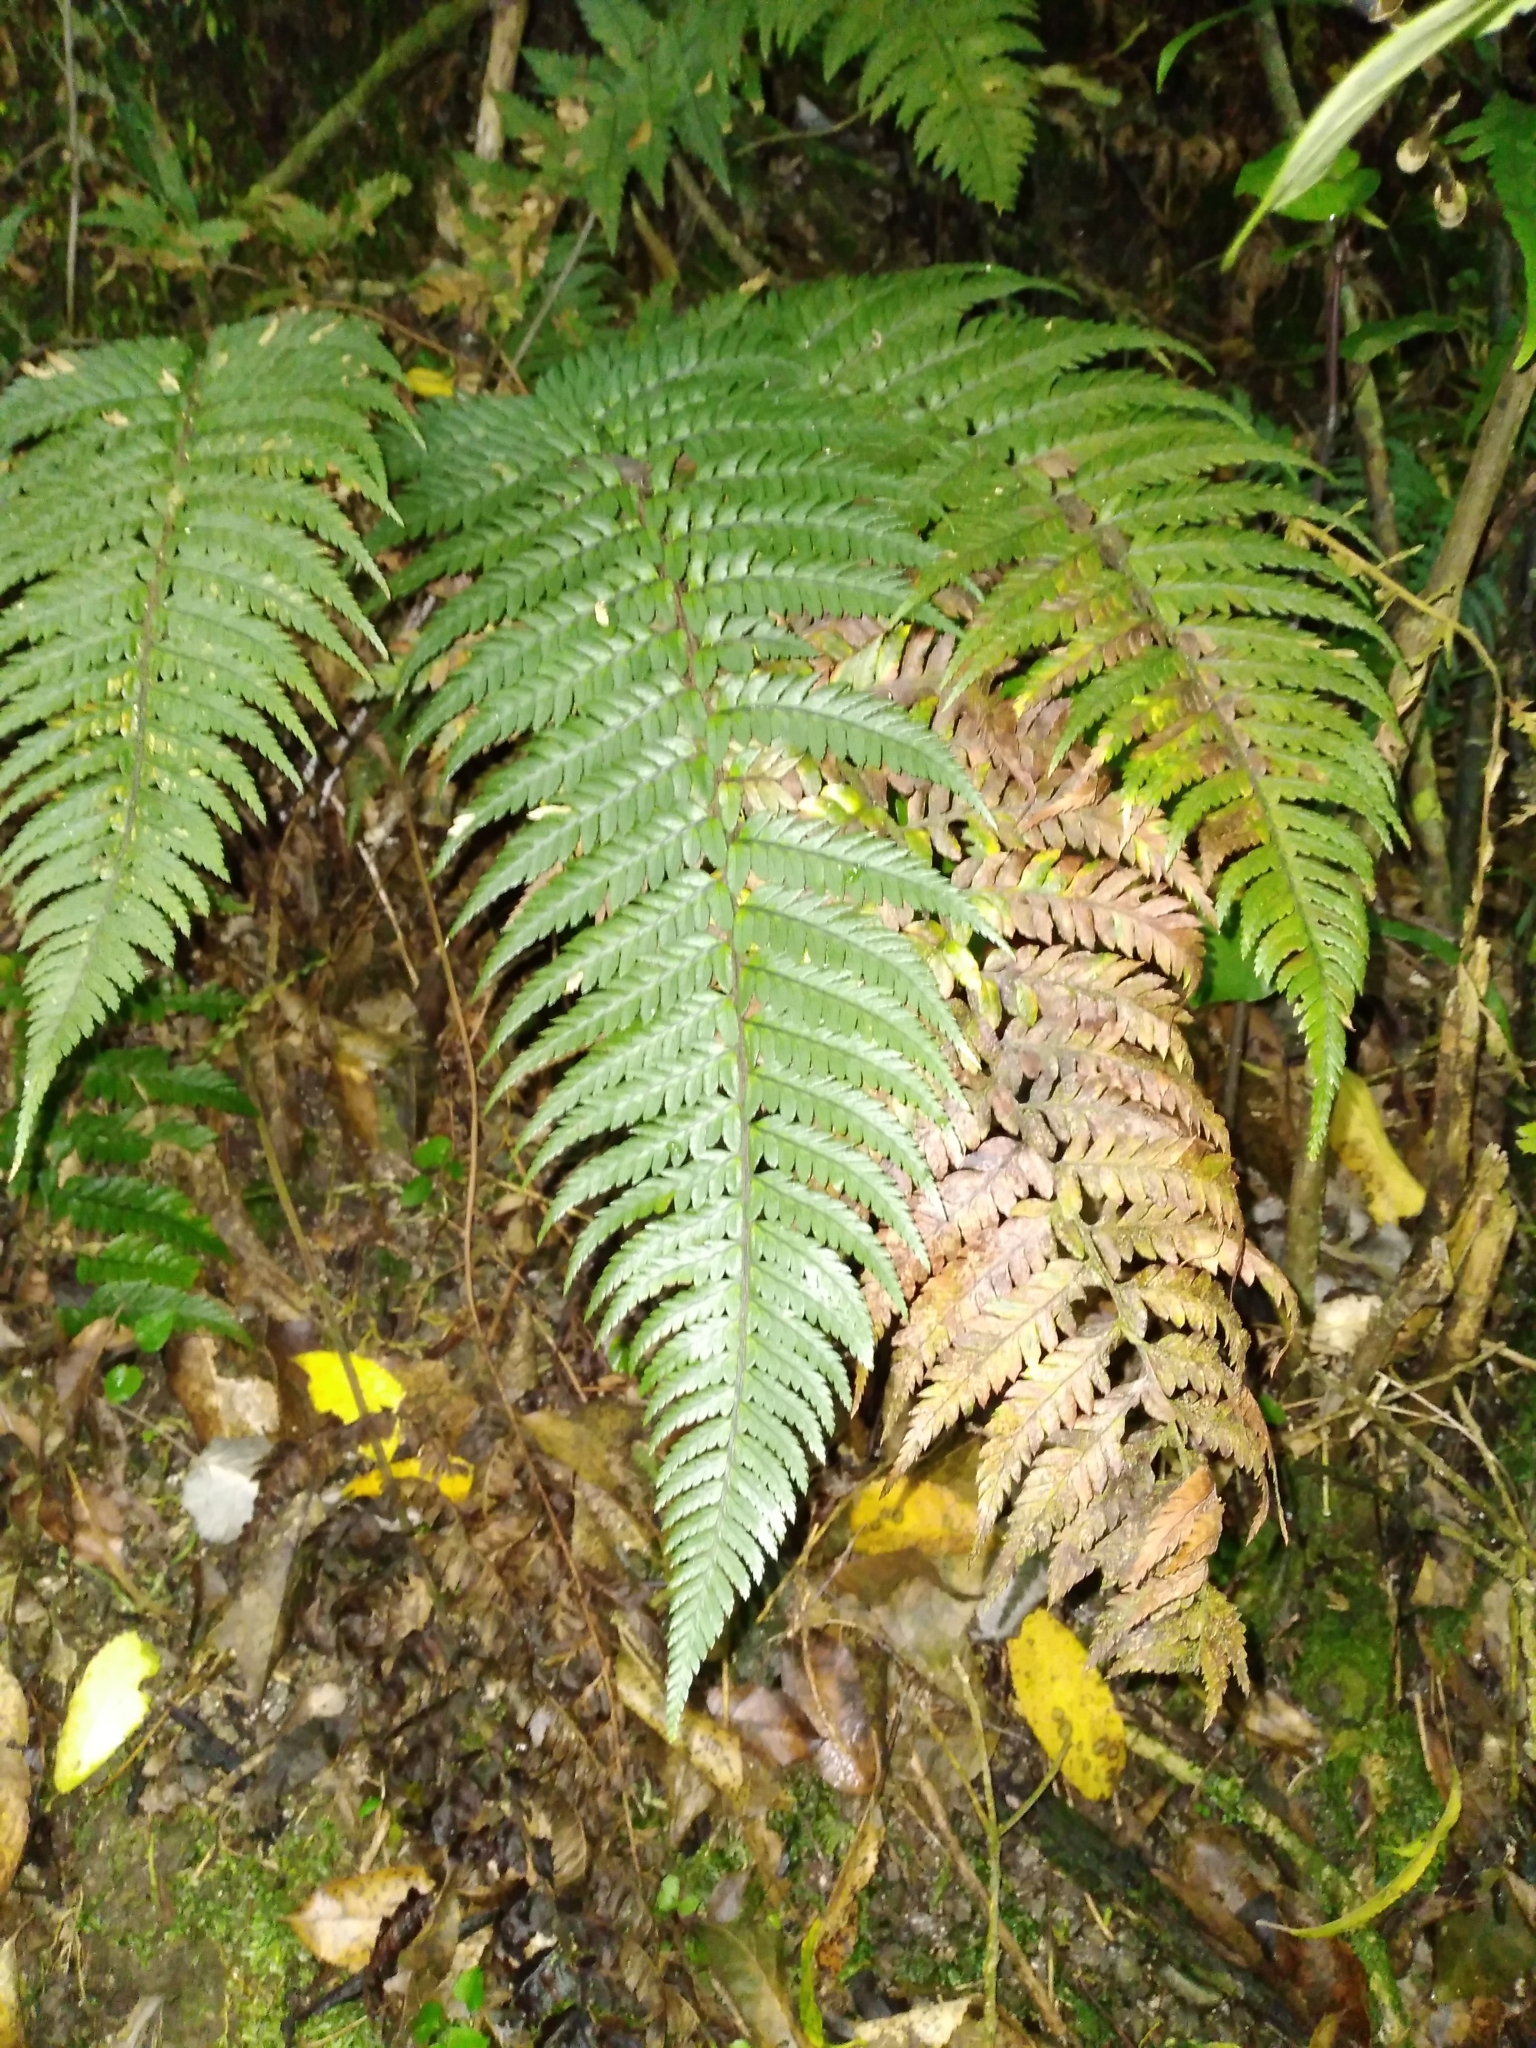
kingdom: Plantae
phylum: Tracheophyta
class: Polypodiopsida
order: Polypodiales
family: Dryopteridaceae
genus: Polystichum
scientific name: Polystichum wawranum
